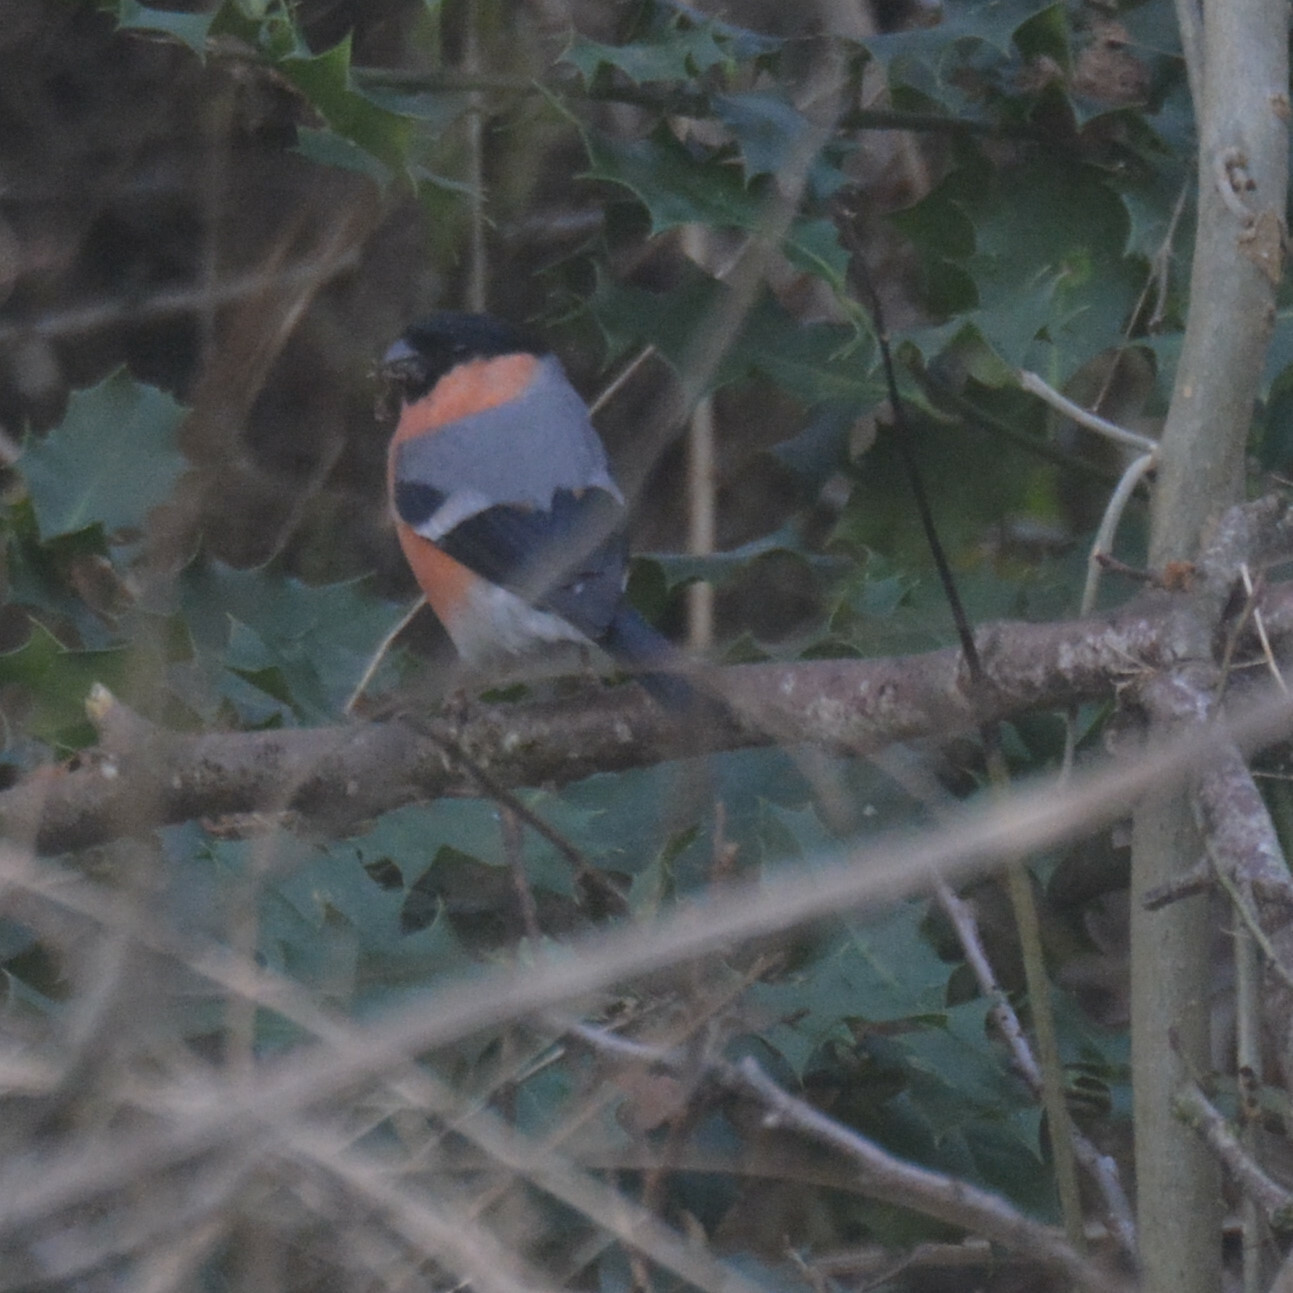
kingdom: Animalia
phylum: Chordata
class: Aves
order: Passeriformes
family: Fringillidae
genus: Pyrrhula
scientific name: Pyrrhula pyrrhula
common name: Eurasian bullfinch
